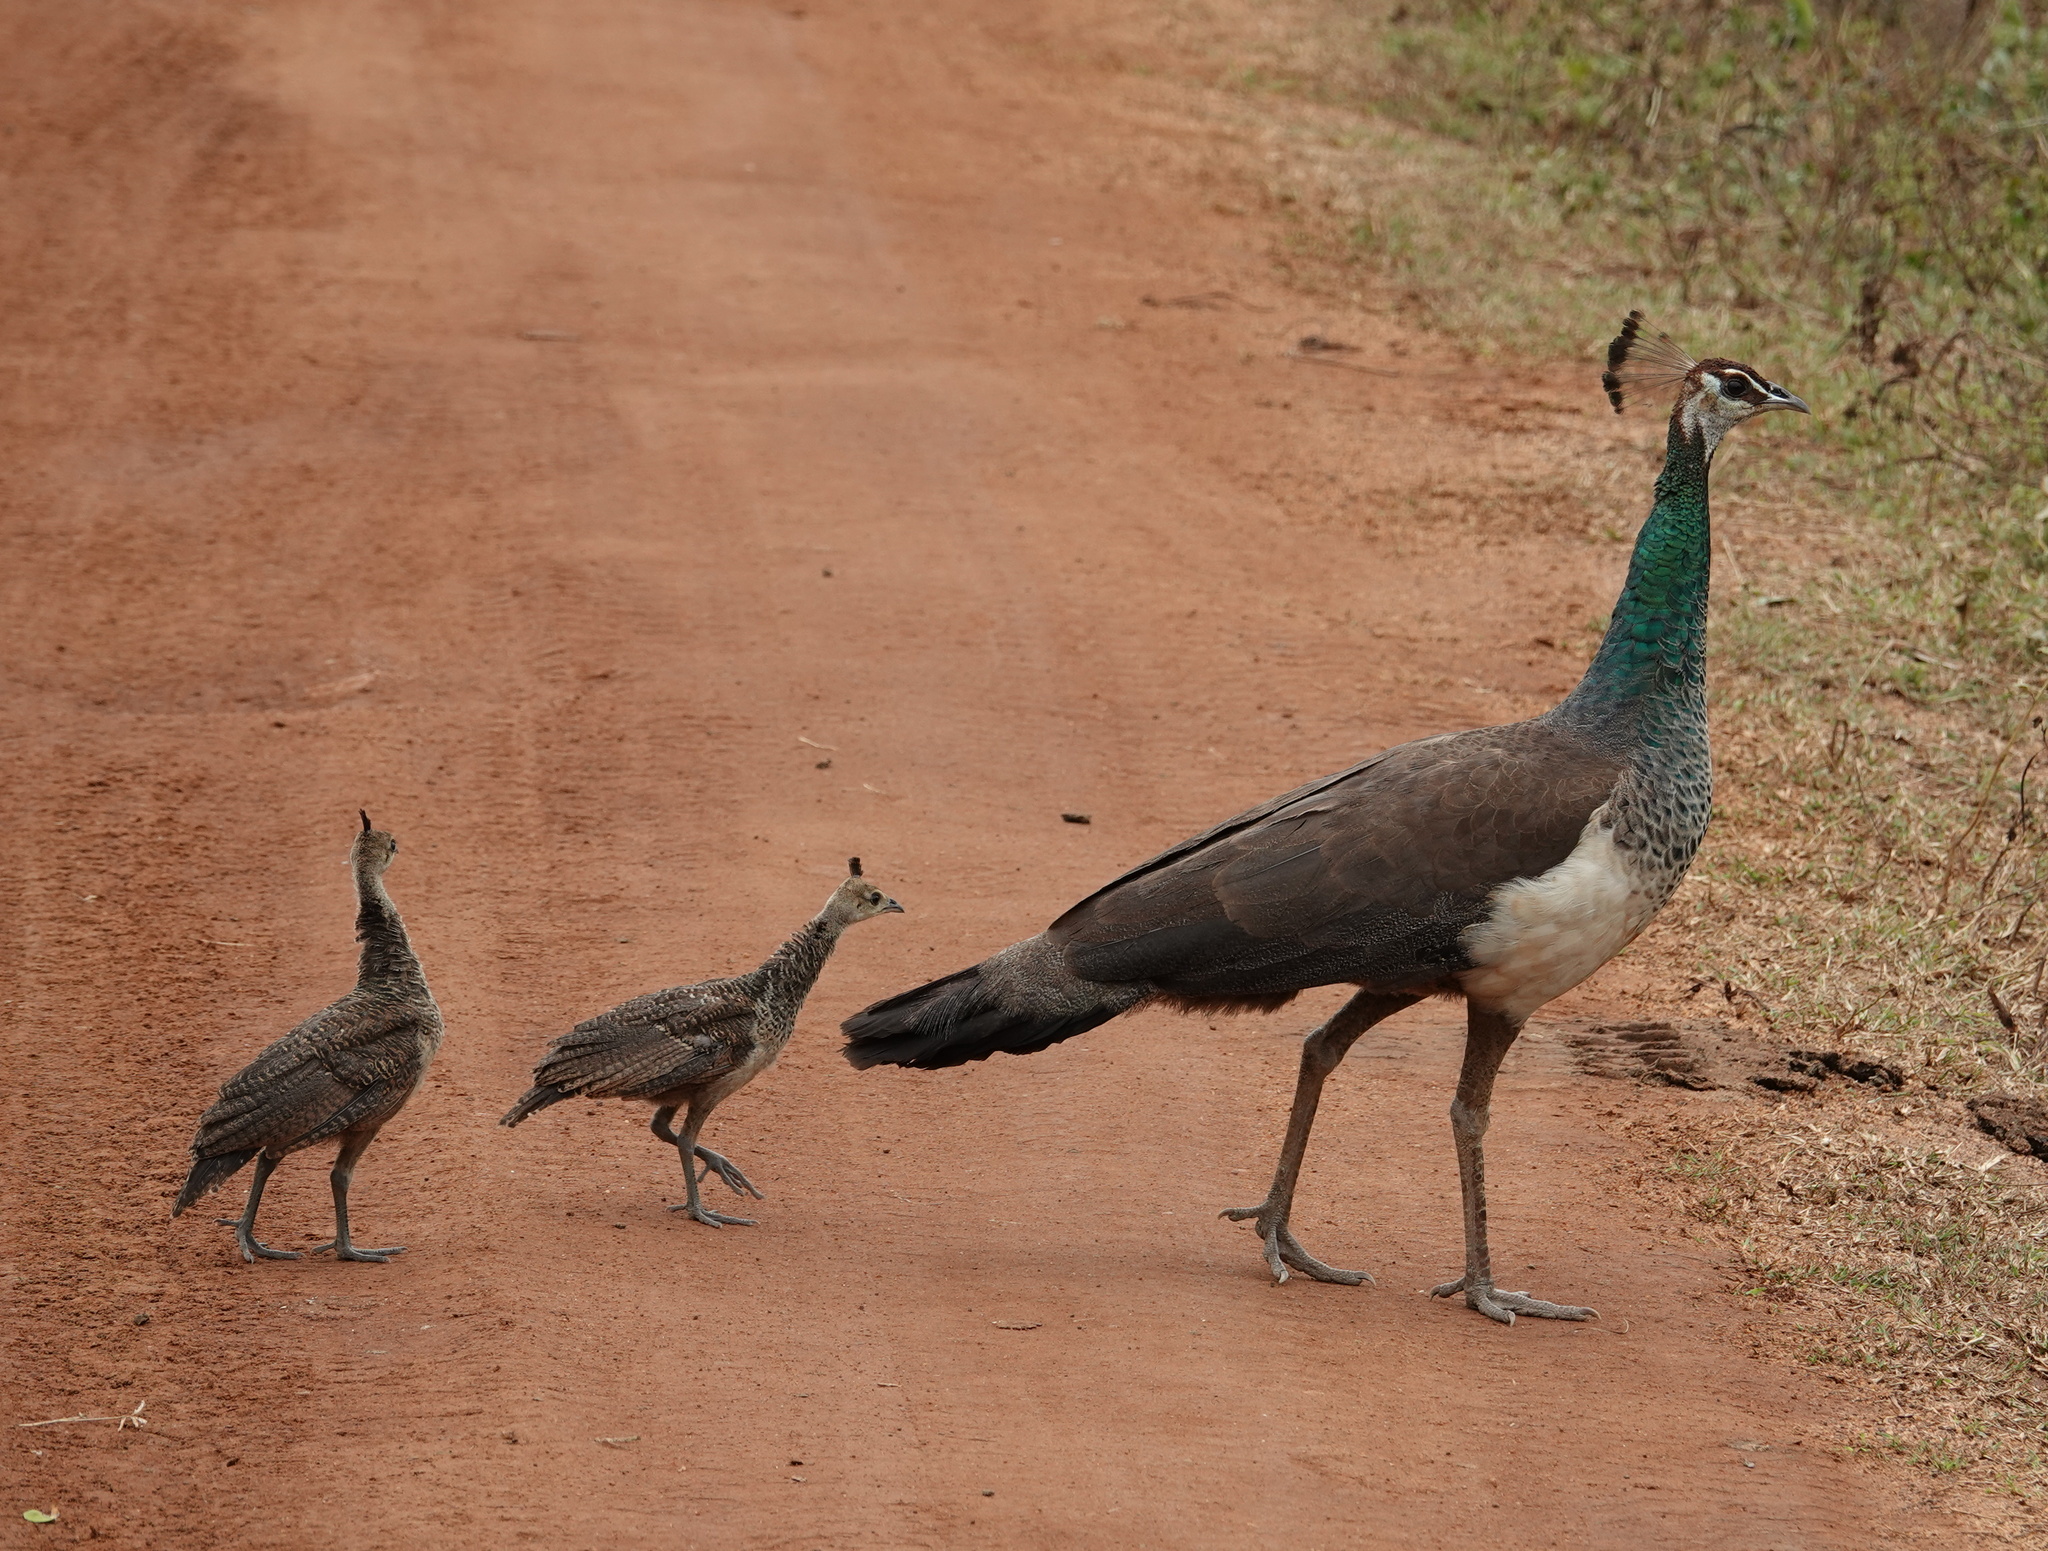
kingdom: Animalia
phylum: Chordata
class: Aves
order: Galliformes
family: Phasianidae
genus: Pavo
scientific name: Pavo cristatus
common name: Indian peafowl
